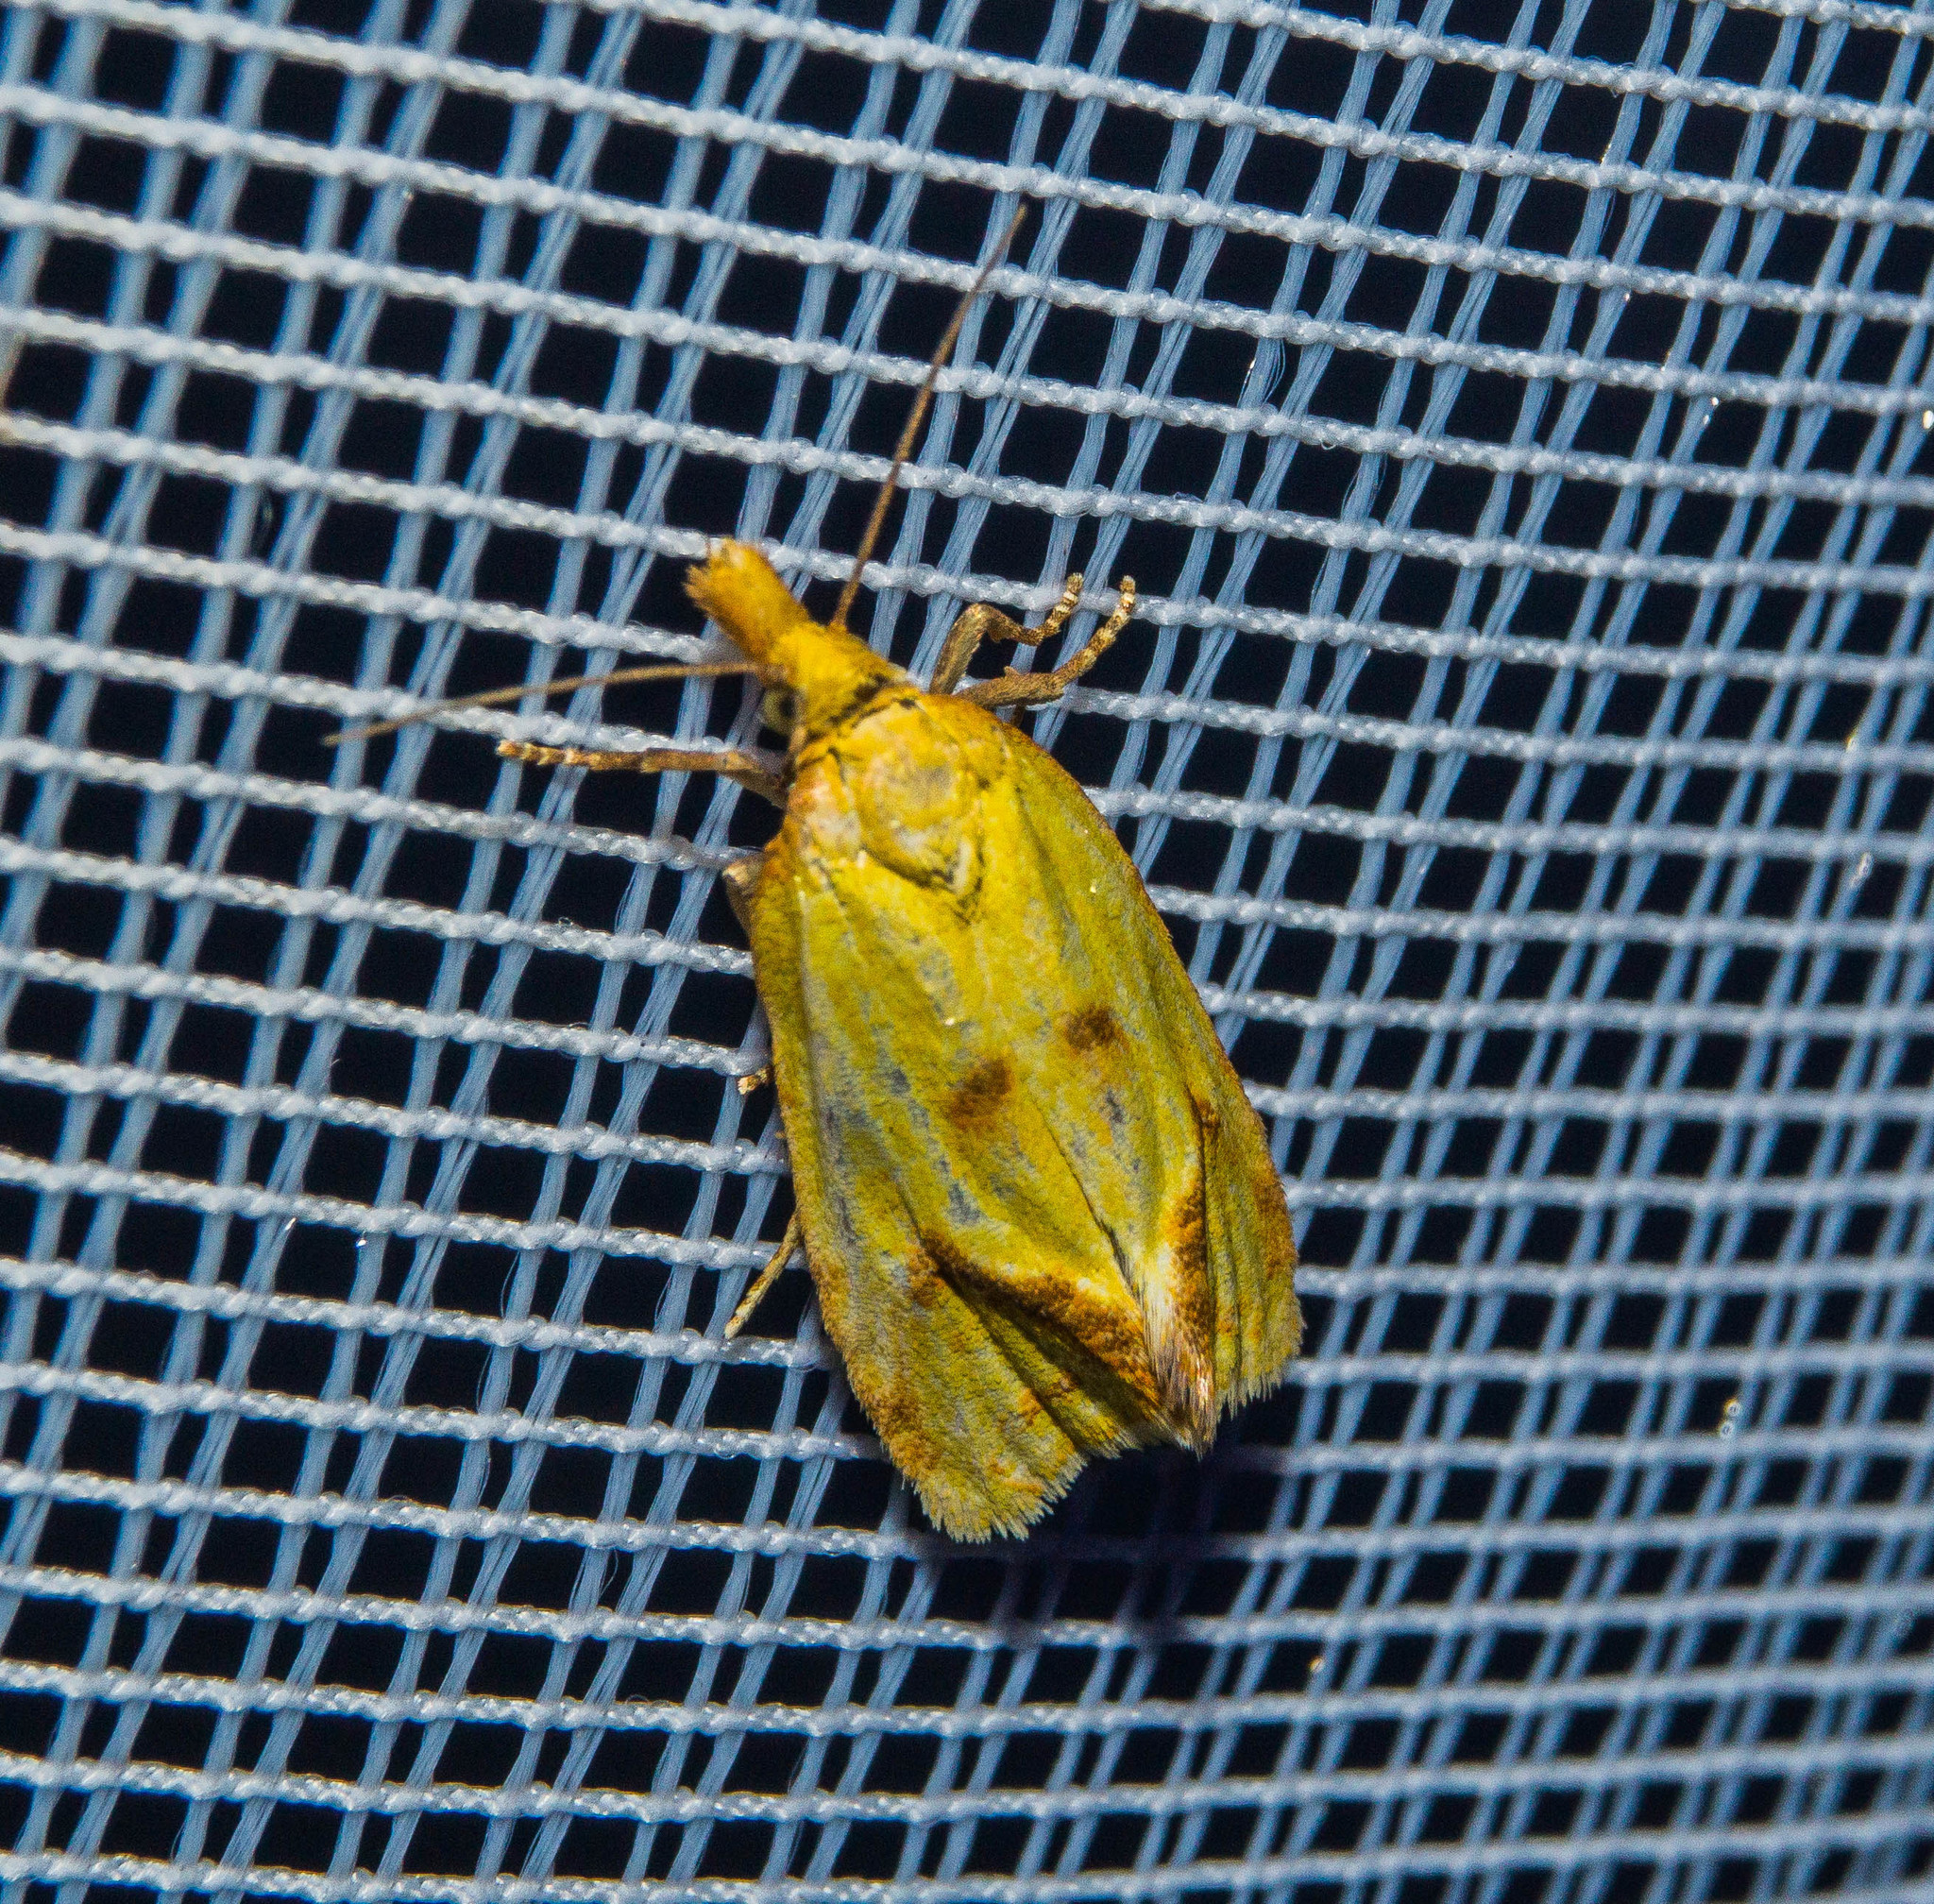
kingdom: Animalia
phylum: Arthropoda
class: Insecta
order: Lepidoptera
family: Tortricidae
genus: Agapeta
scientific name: Agapeta hamana
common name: Common yellow conch
